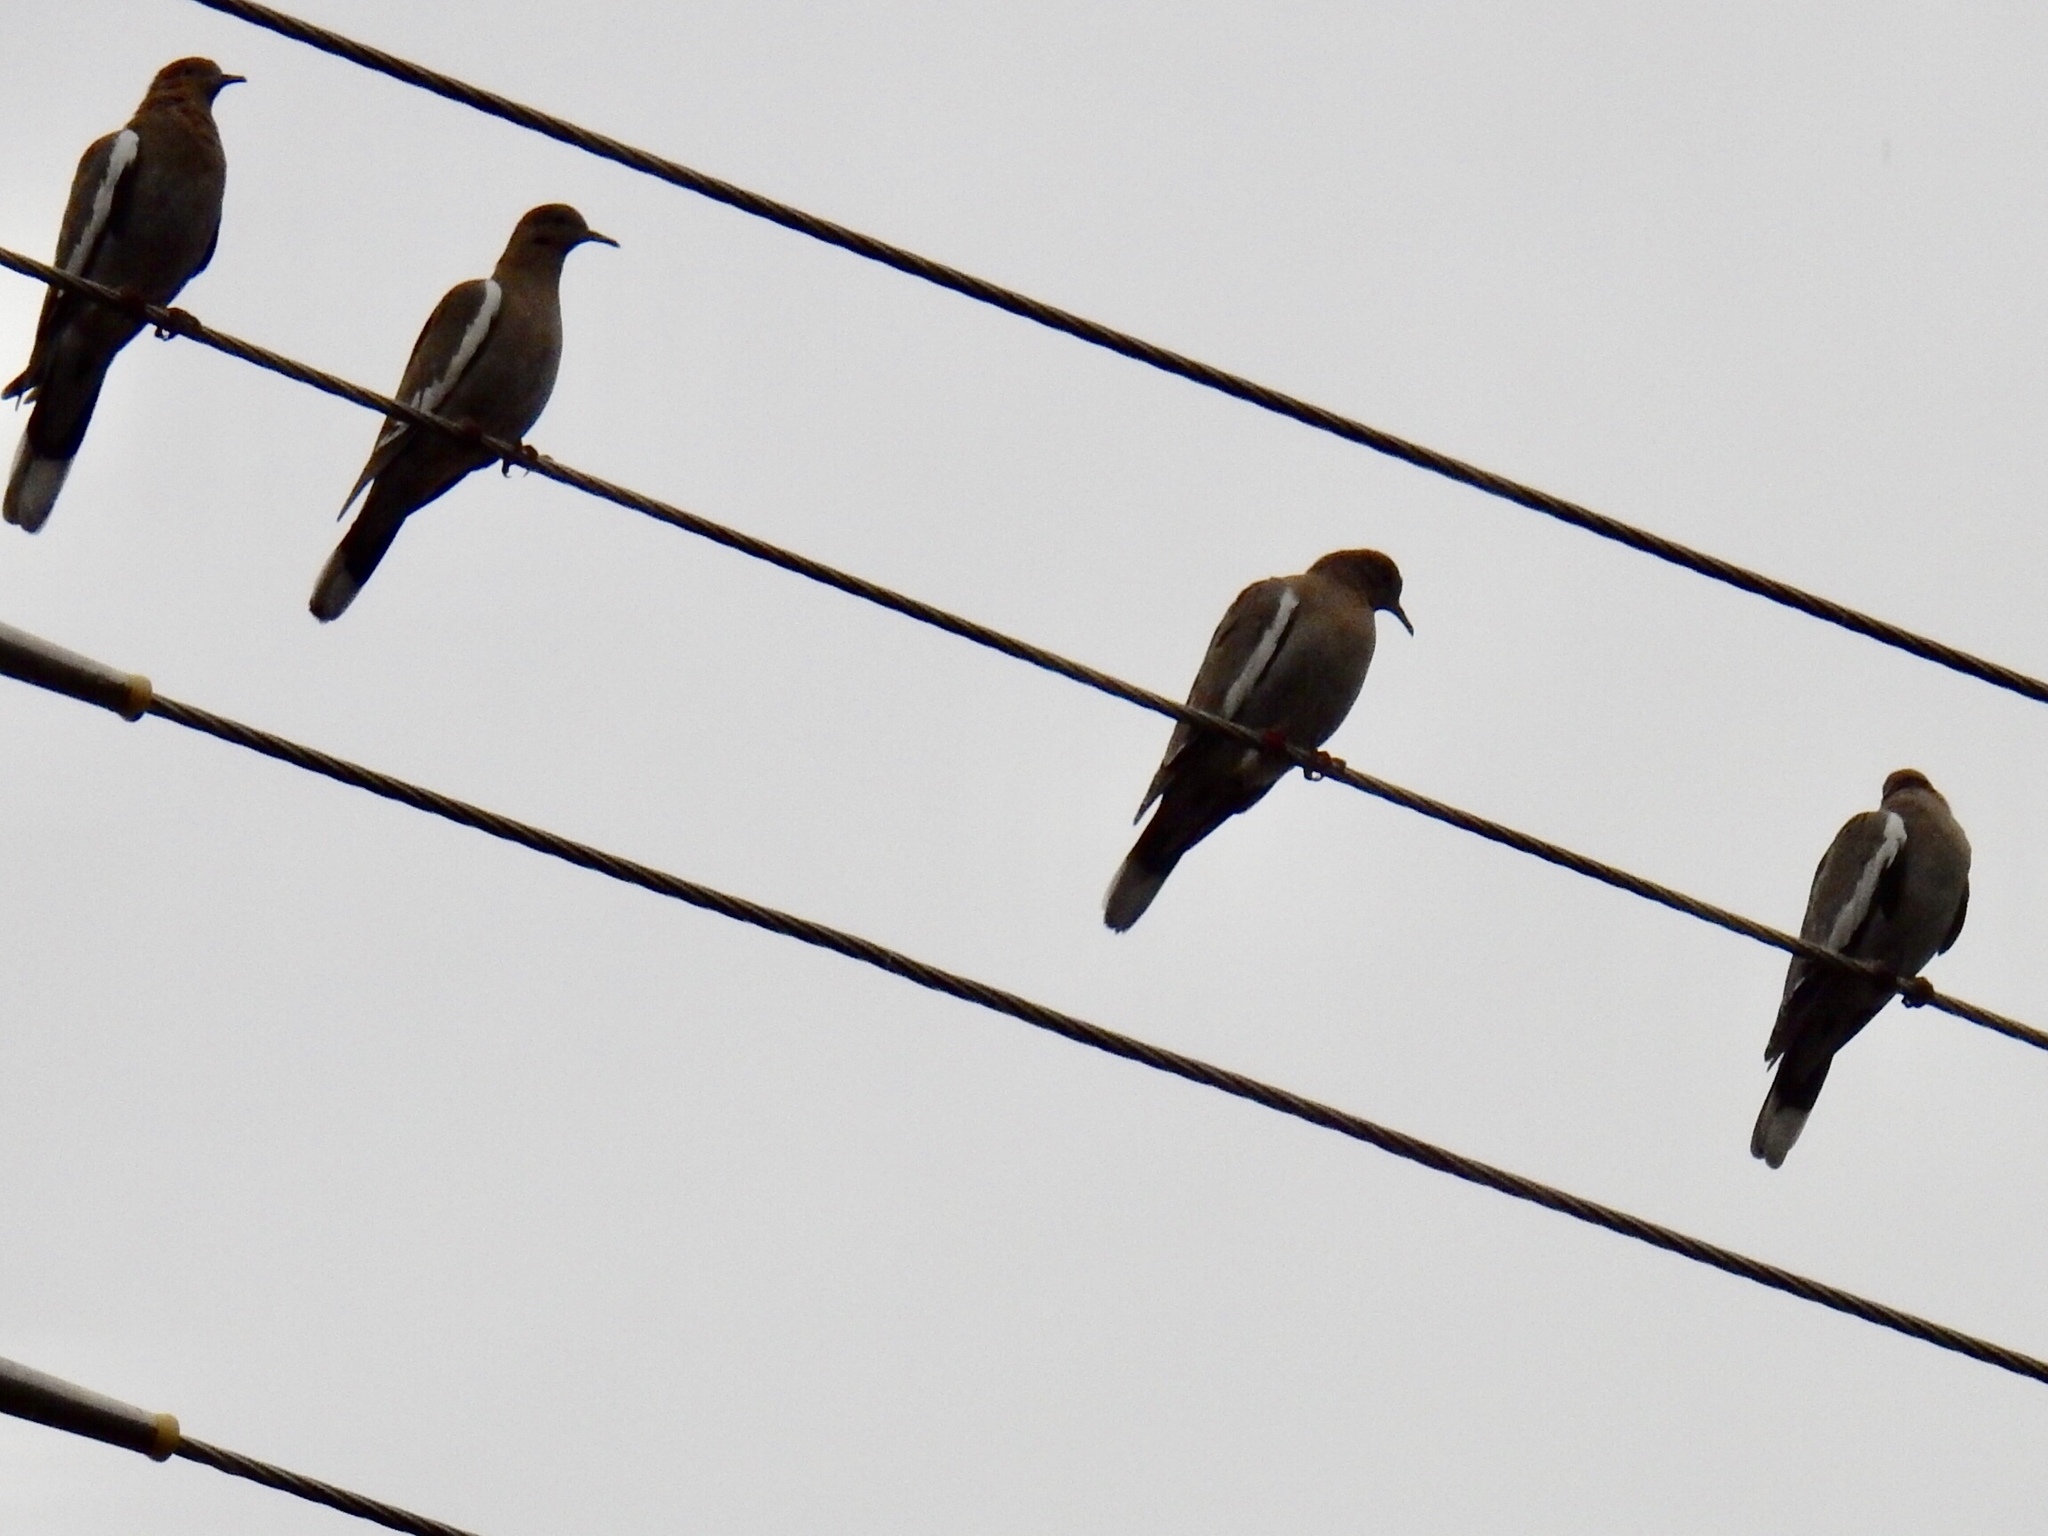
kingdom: Animalia
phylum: Chordata
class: Aves
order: Columbiformes
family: Columbidae
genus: Zenaida
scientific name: Zenaida asiatica
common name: White-winged dove
